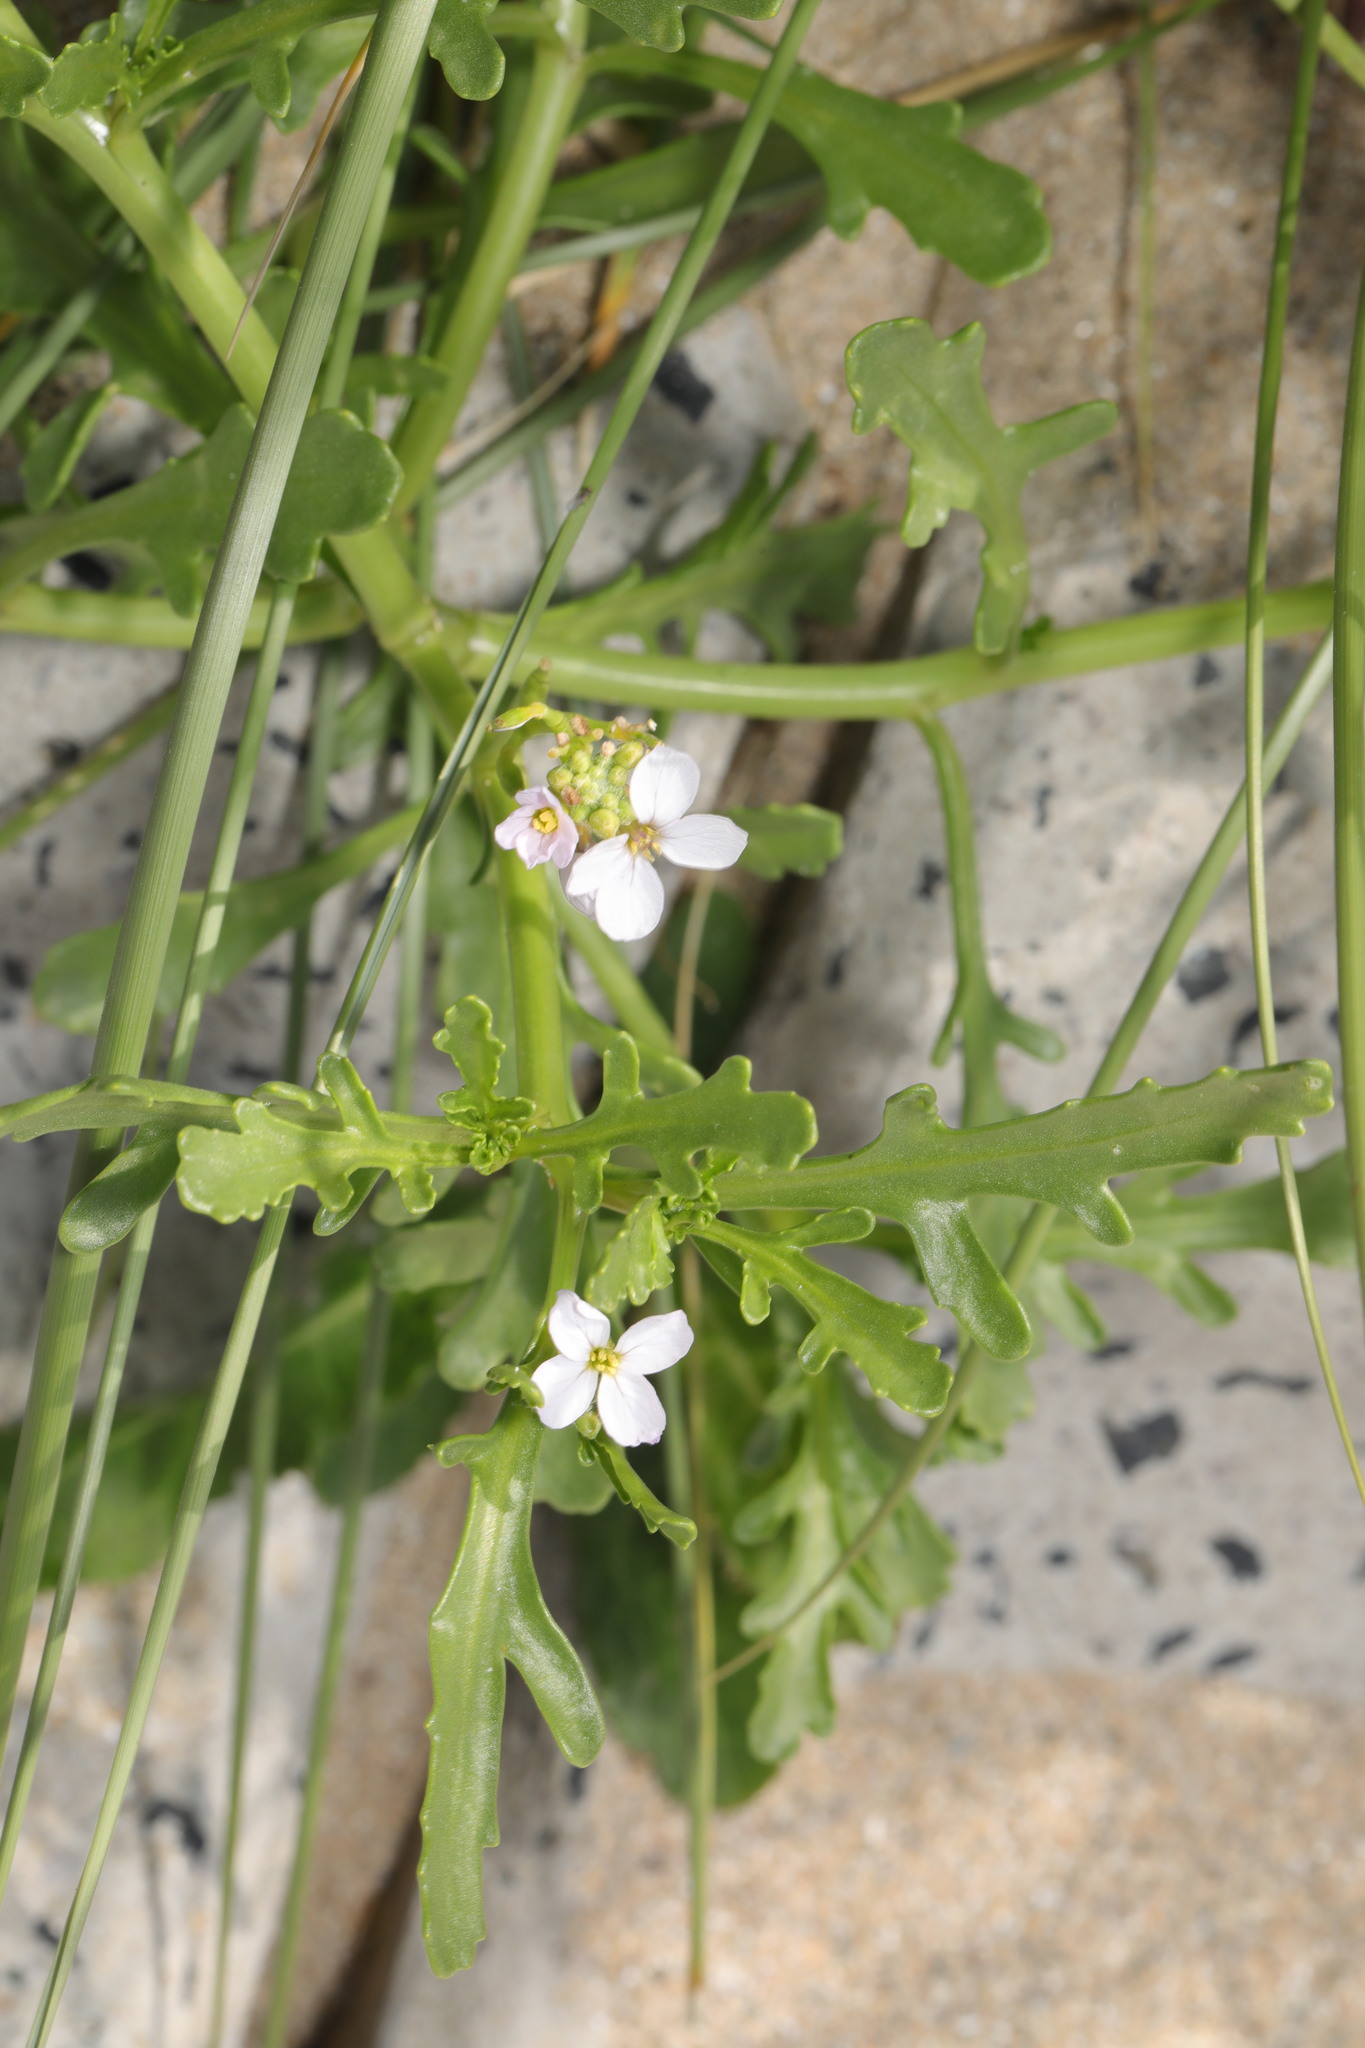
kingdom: Plantae
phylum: Tracheophyta
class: Magnoliopsida
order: Brassicales
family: Brassicaceae
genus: Cakile
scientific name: Cakile maritima
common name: Sea rocket
